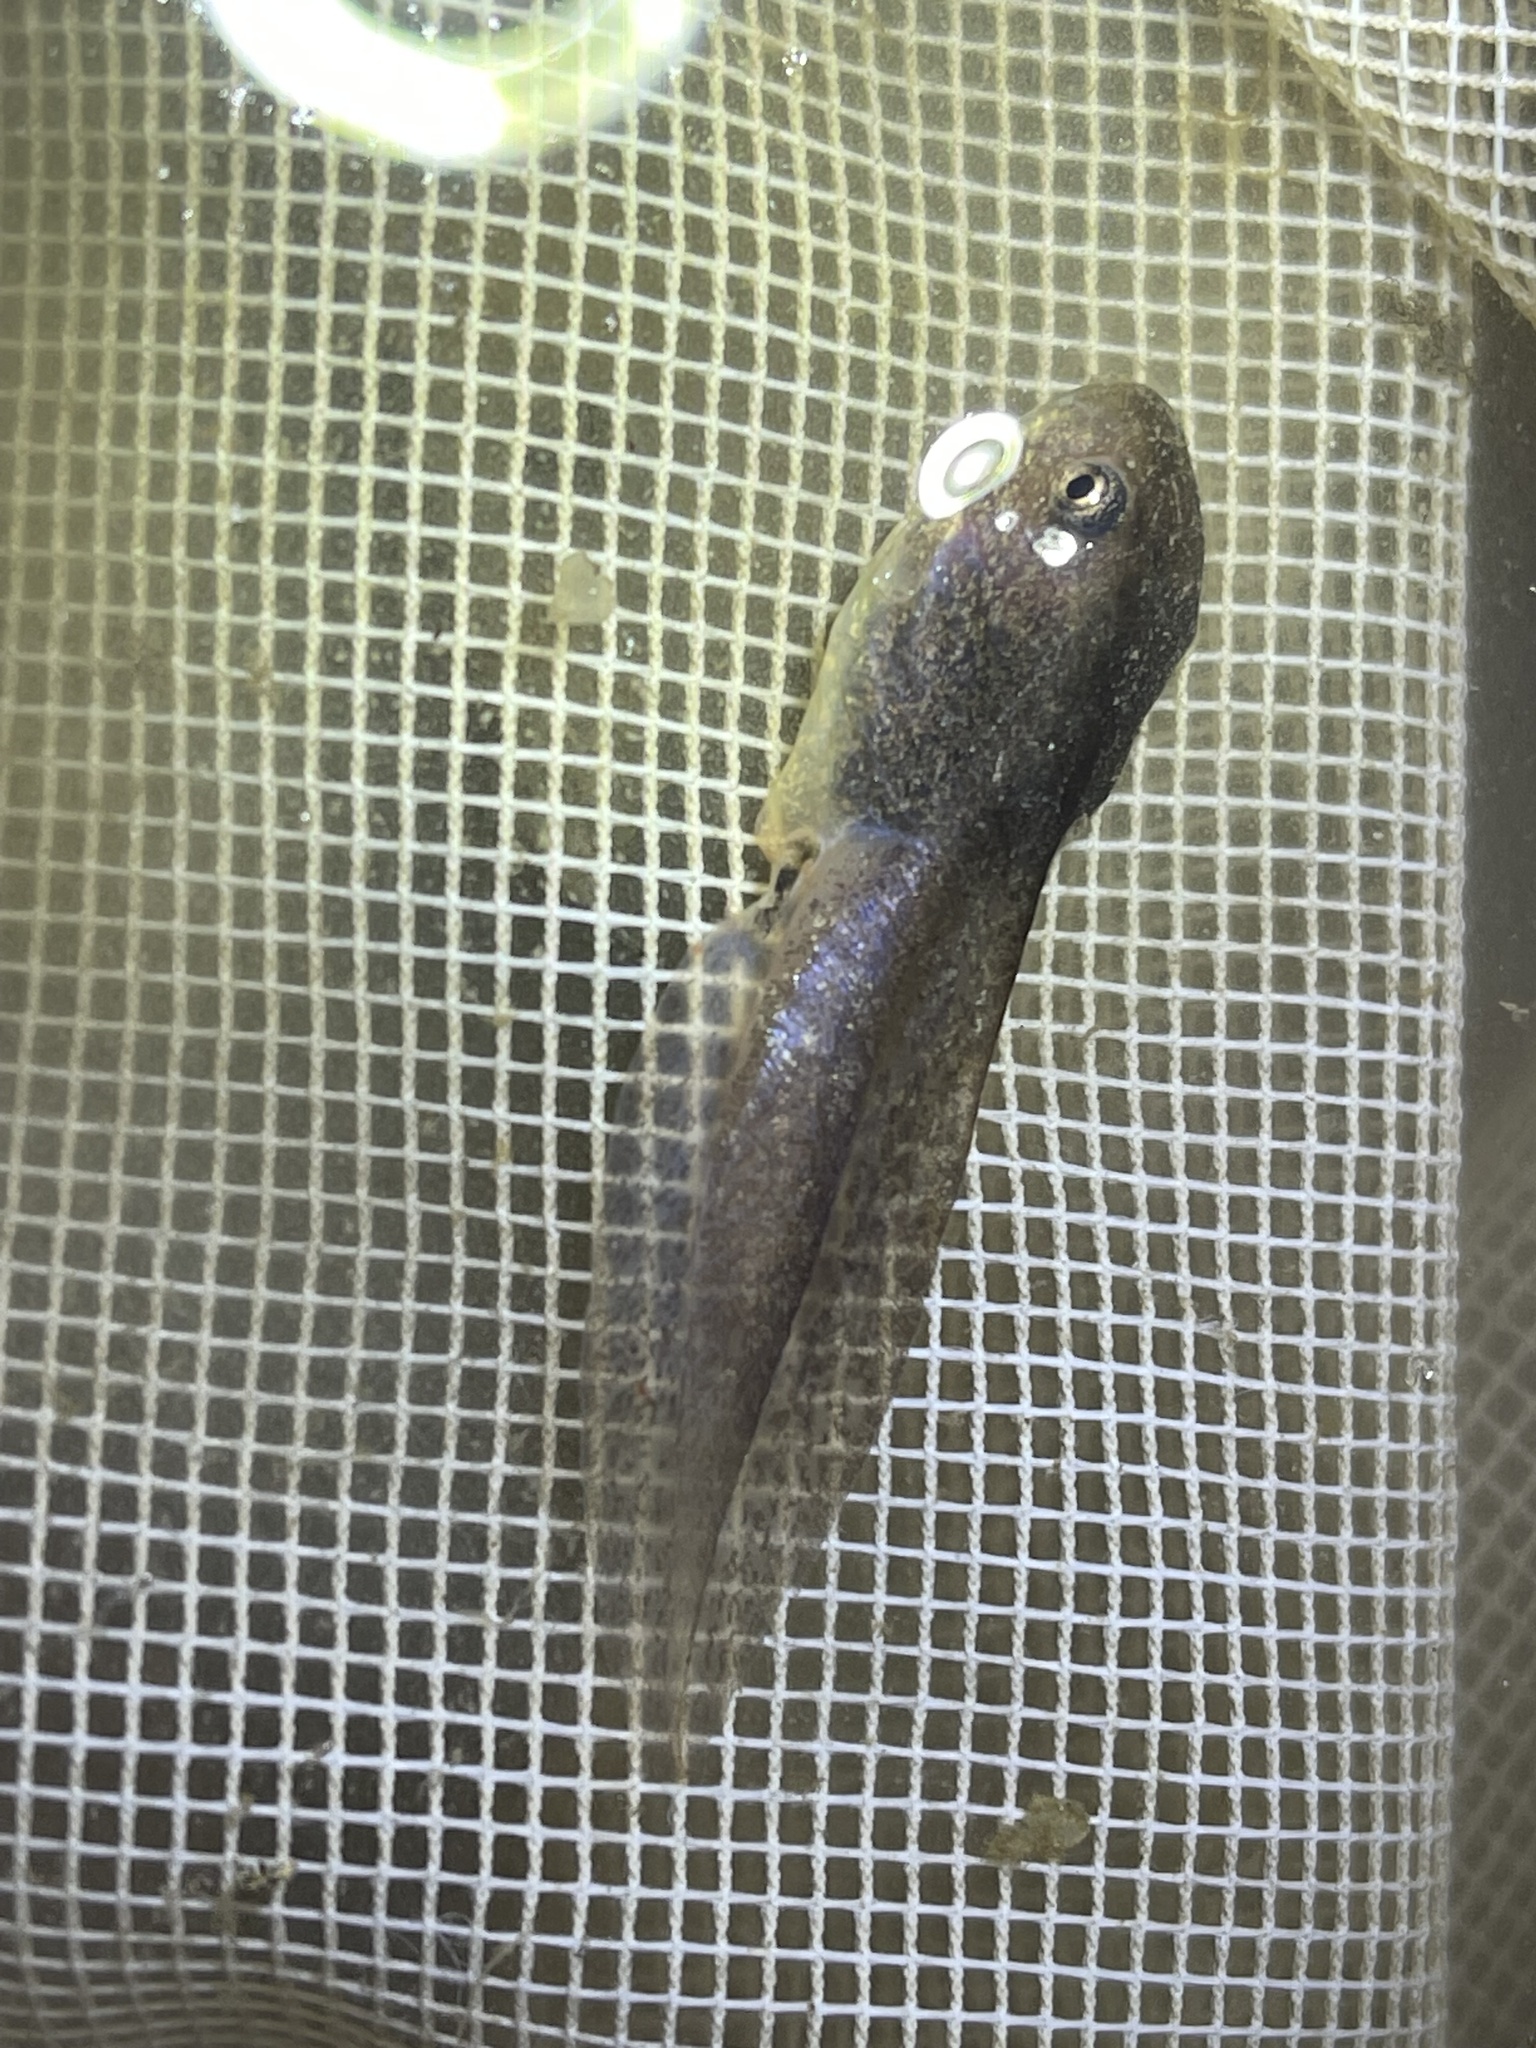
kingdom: Animalia
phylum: Chordata
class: Amphibia
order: Anura
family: Ranidae
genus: Lithobates
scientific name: Lithobates clamitans
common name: Green frog
